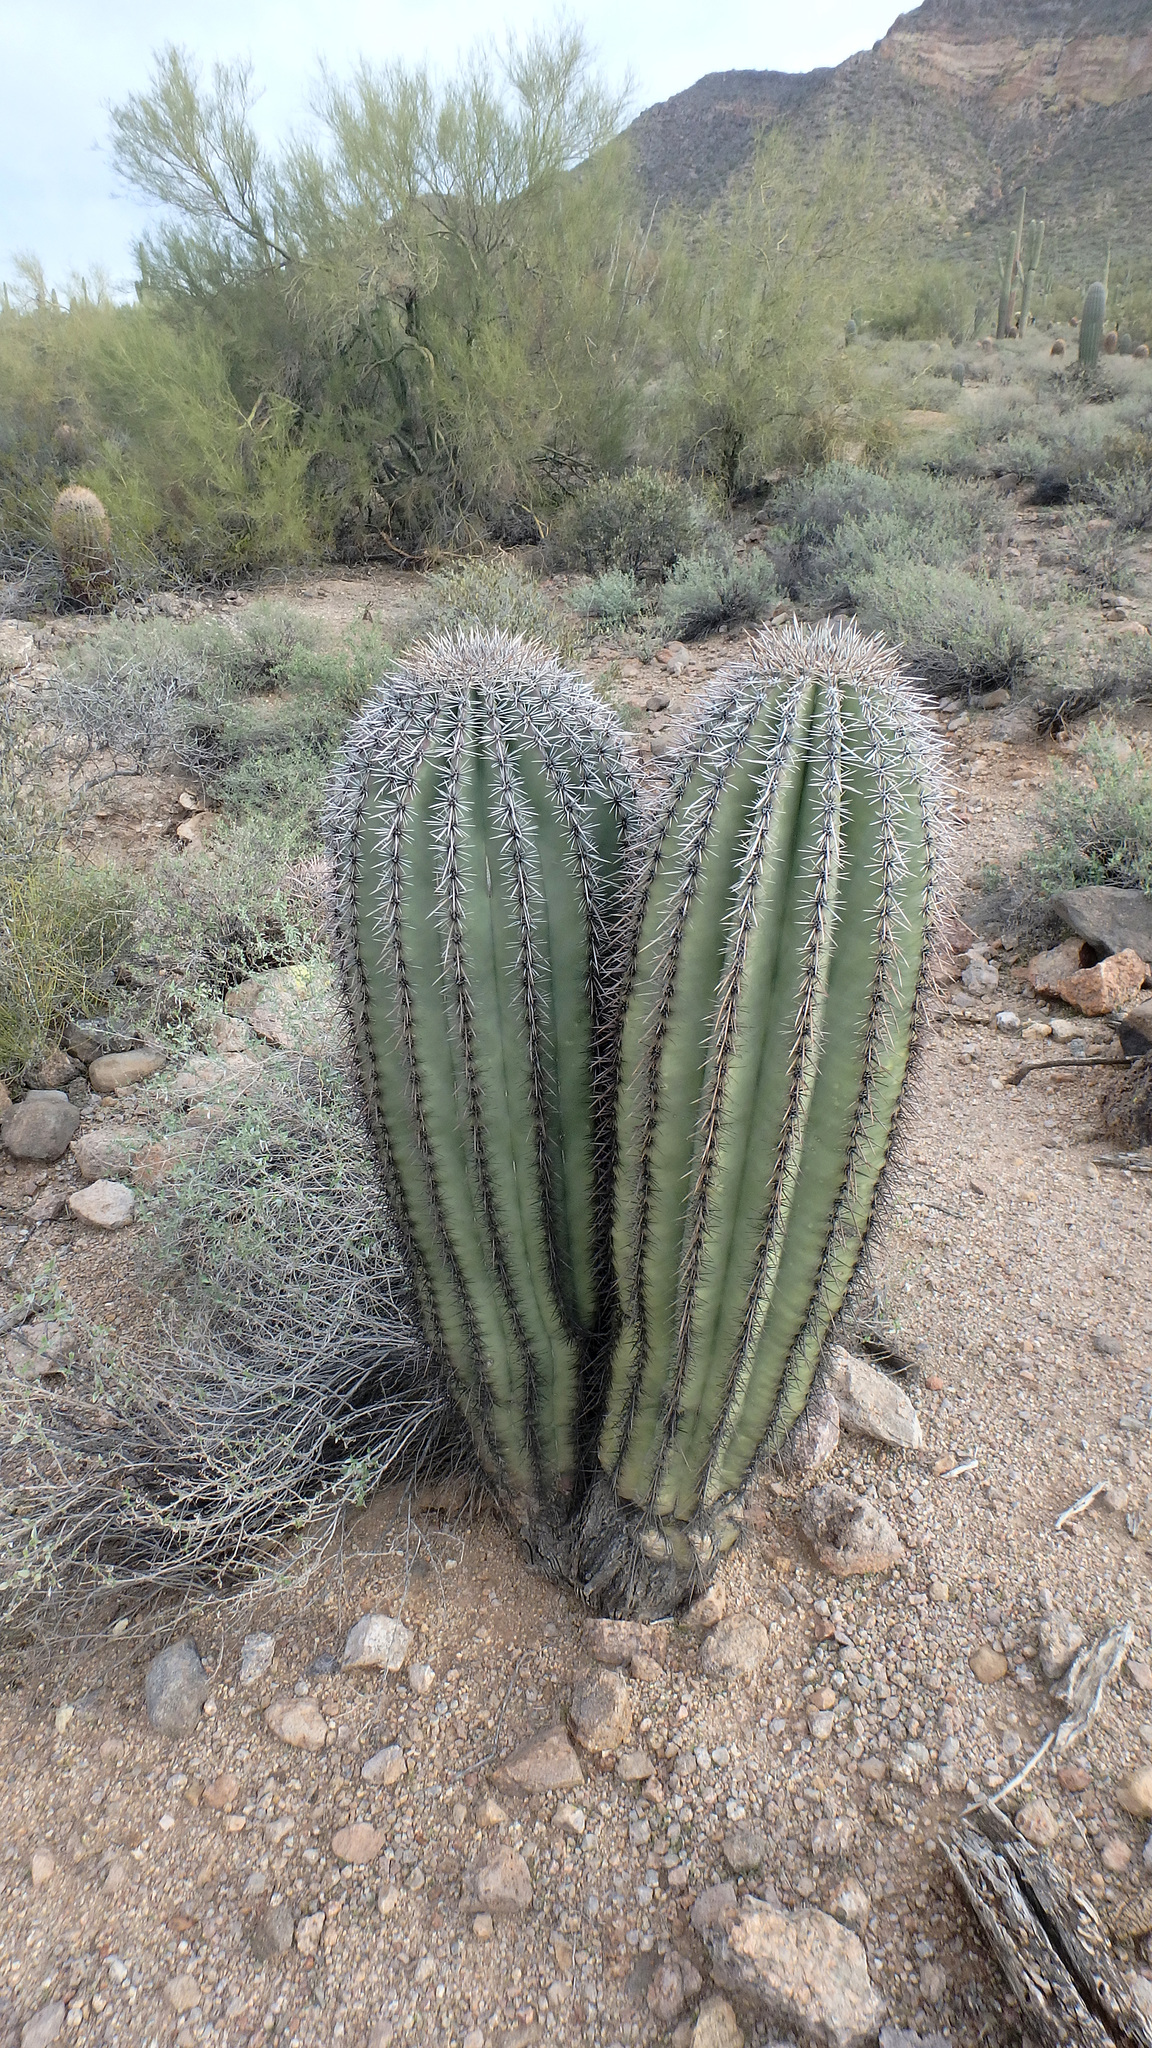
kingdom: Plantae
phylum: Tracheophyta
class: Magnoliopsida
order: Caryophyllales
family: Cactaceae
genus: Carnegiea
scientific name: Carnegiea gigantea
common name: Saguaro
